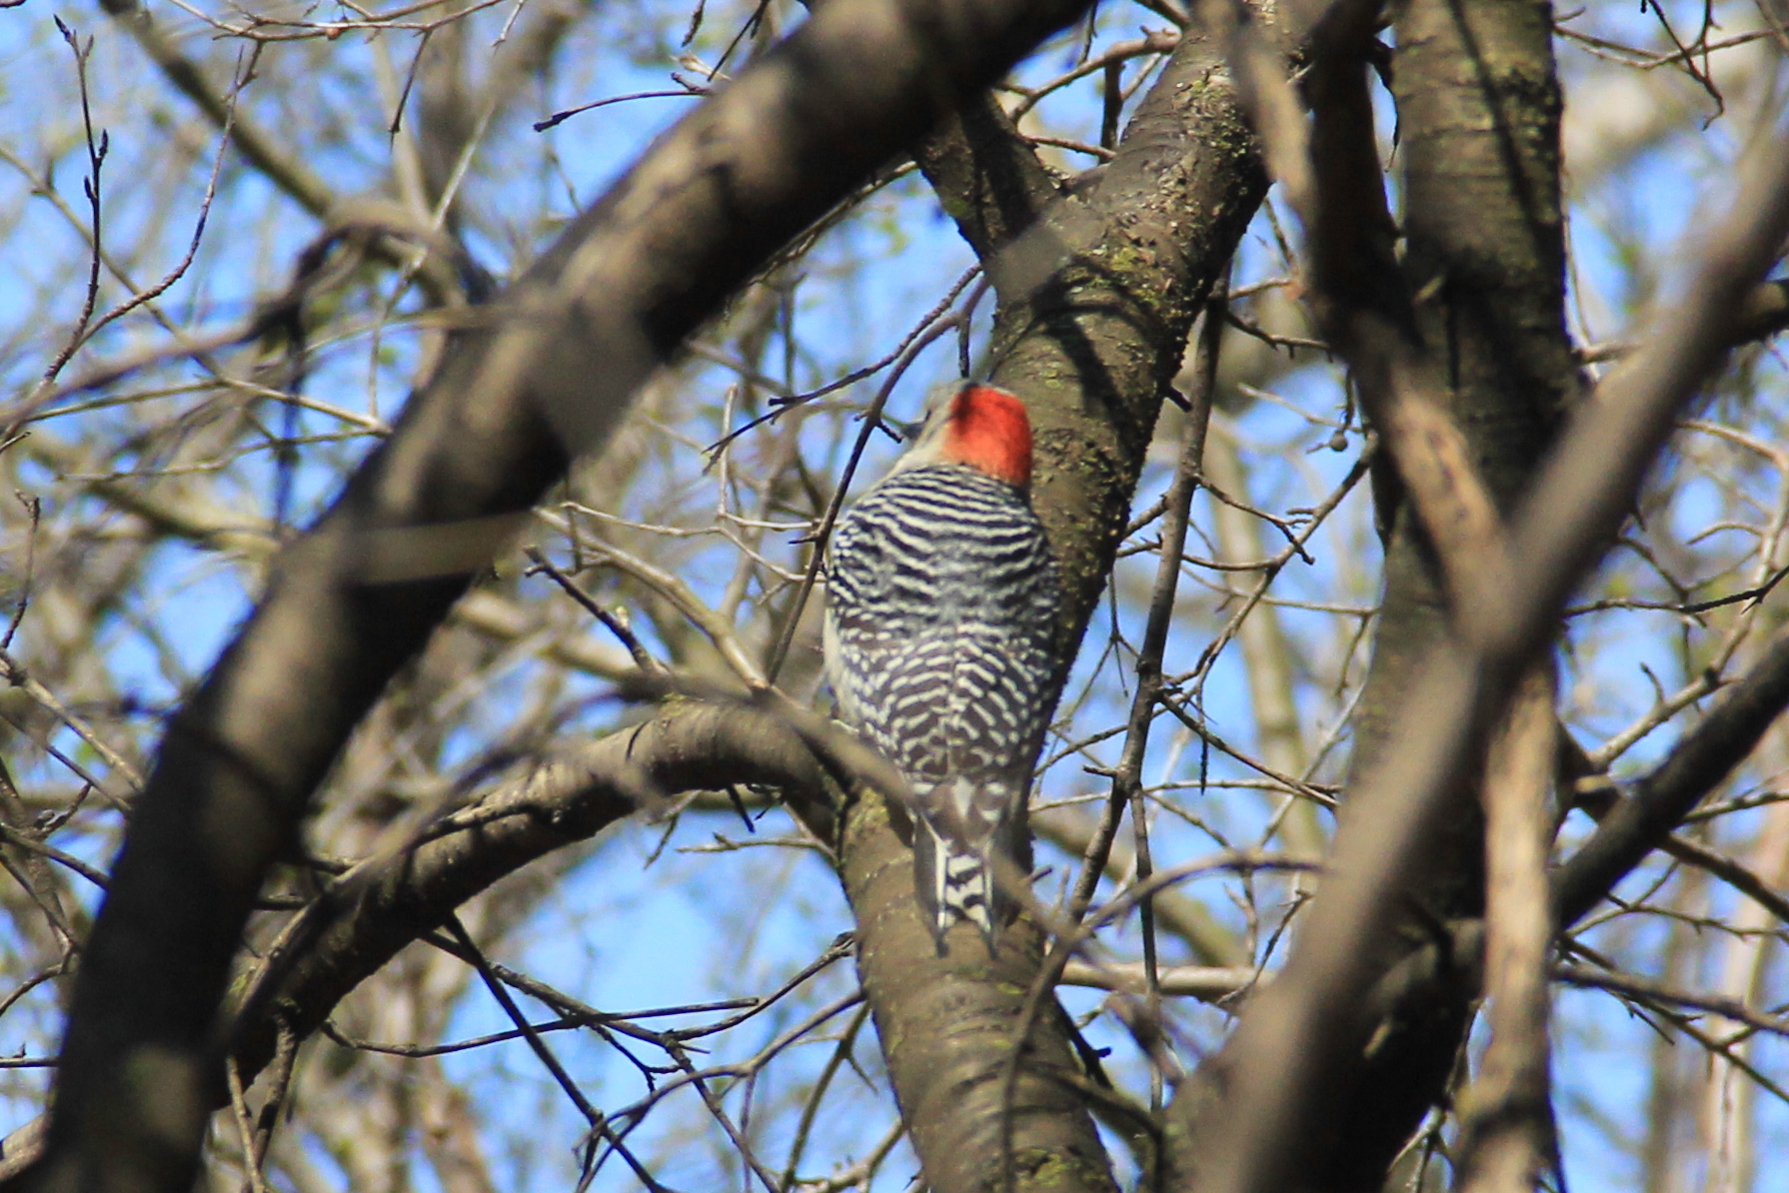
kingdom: Animalia
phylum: Chordata
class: Aves
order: Piciformes
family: Picidae
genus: Melanerpes
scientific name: Melanerpes carolinus
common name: Red-bellied woodpecker
